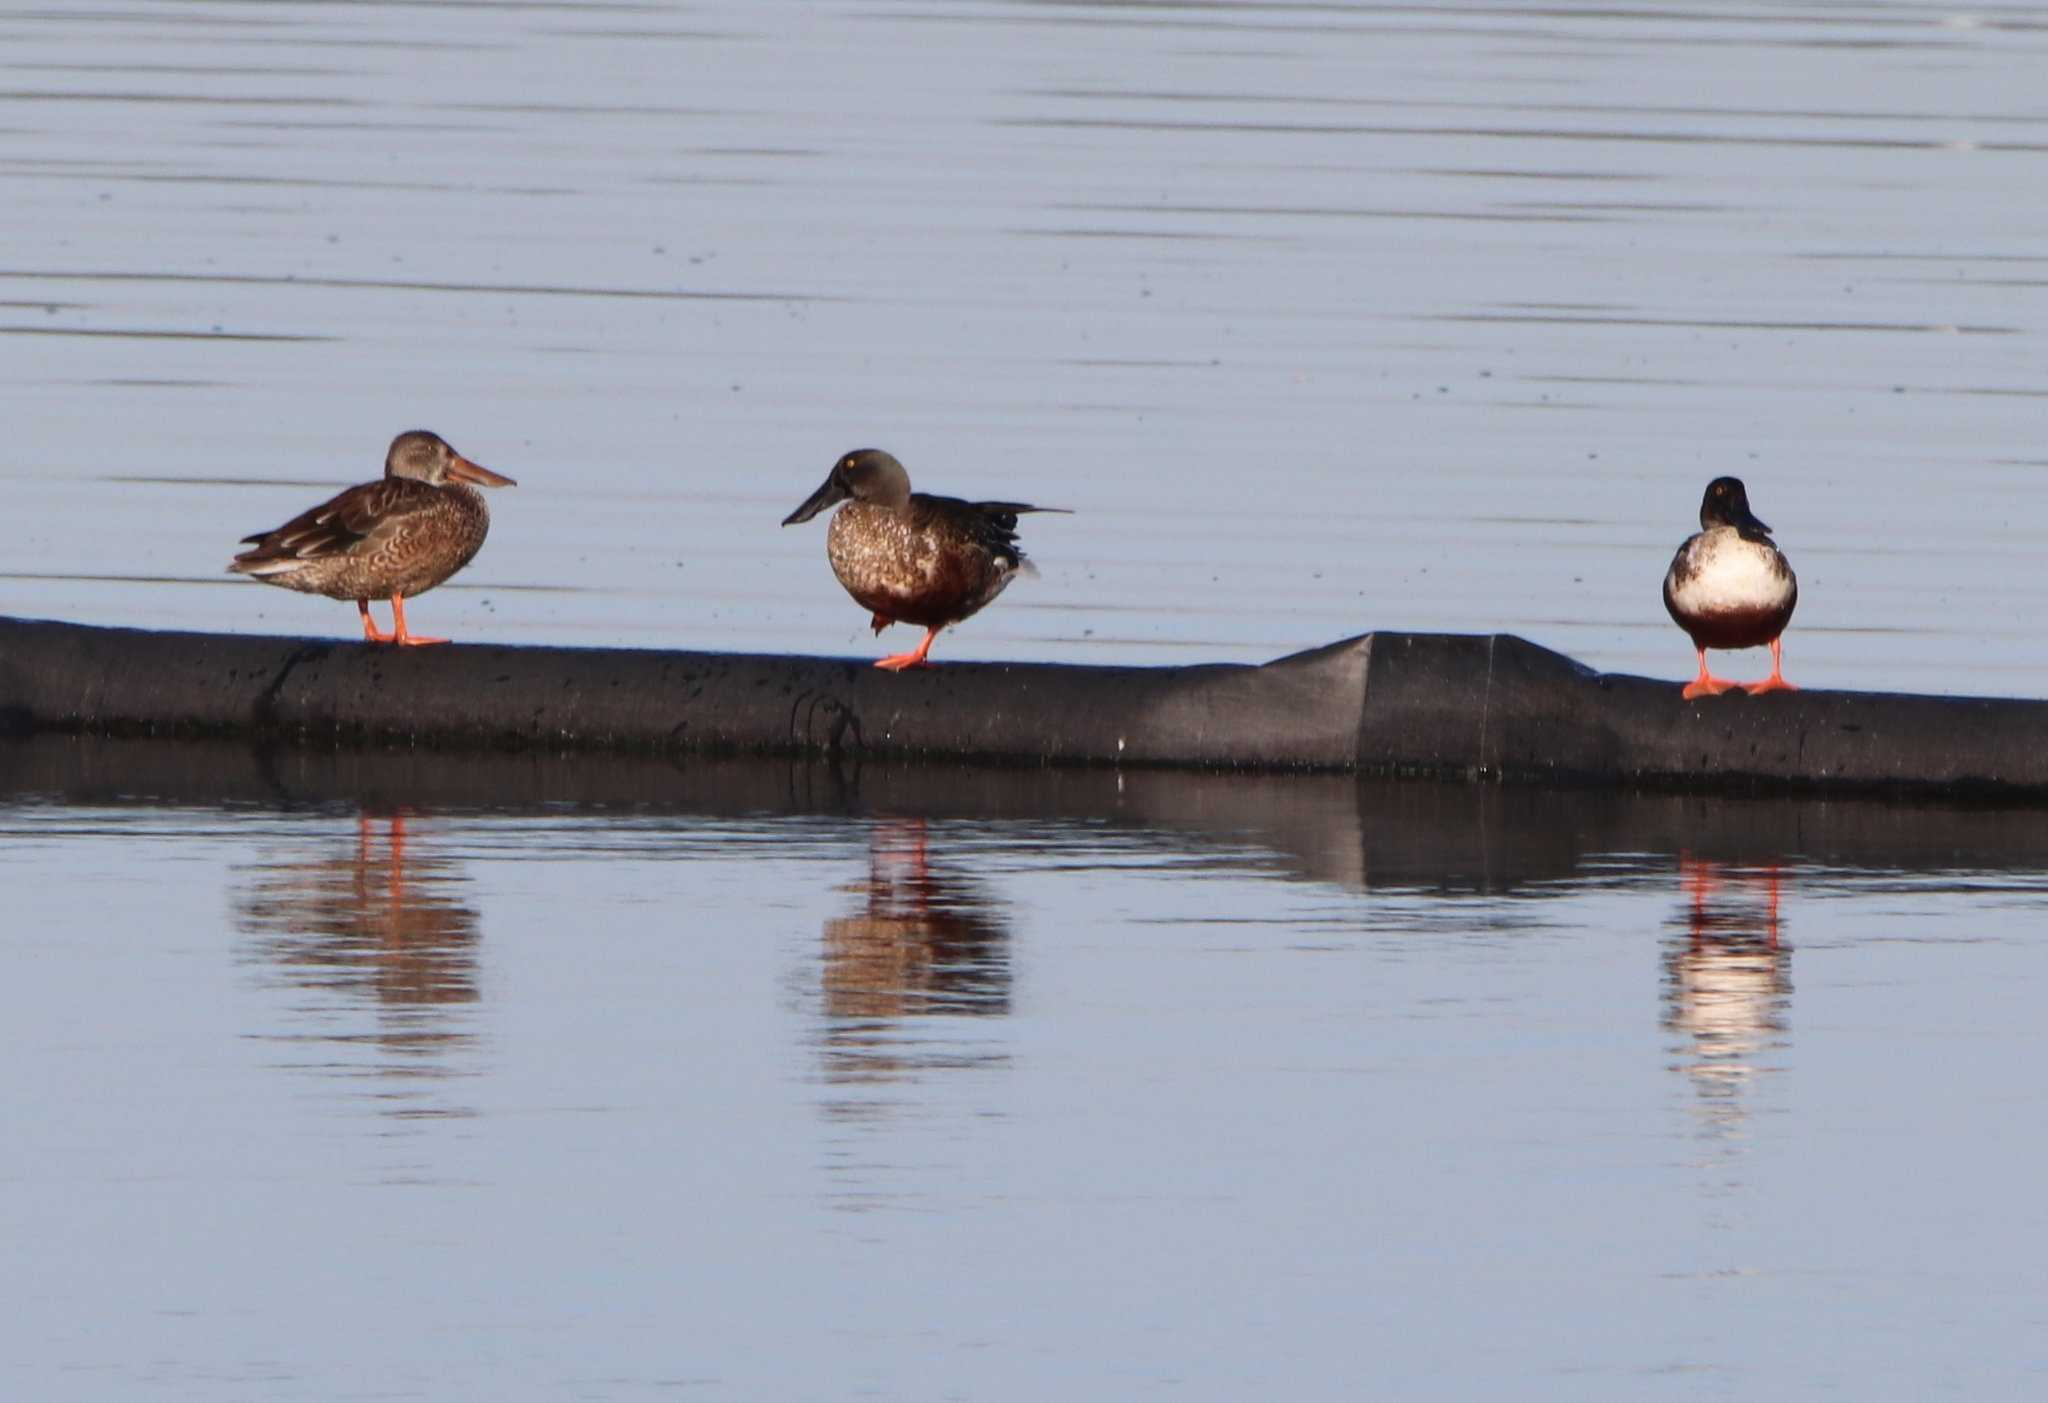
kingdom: Animalia
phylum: Chordata
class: Aves
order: Anseriformes
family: Anatidae
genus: Spatula
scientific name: Spatula clypeata
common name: Northern shoveler
